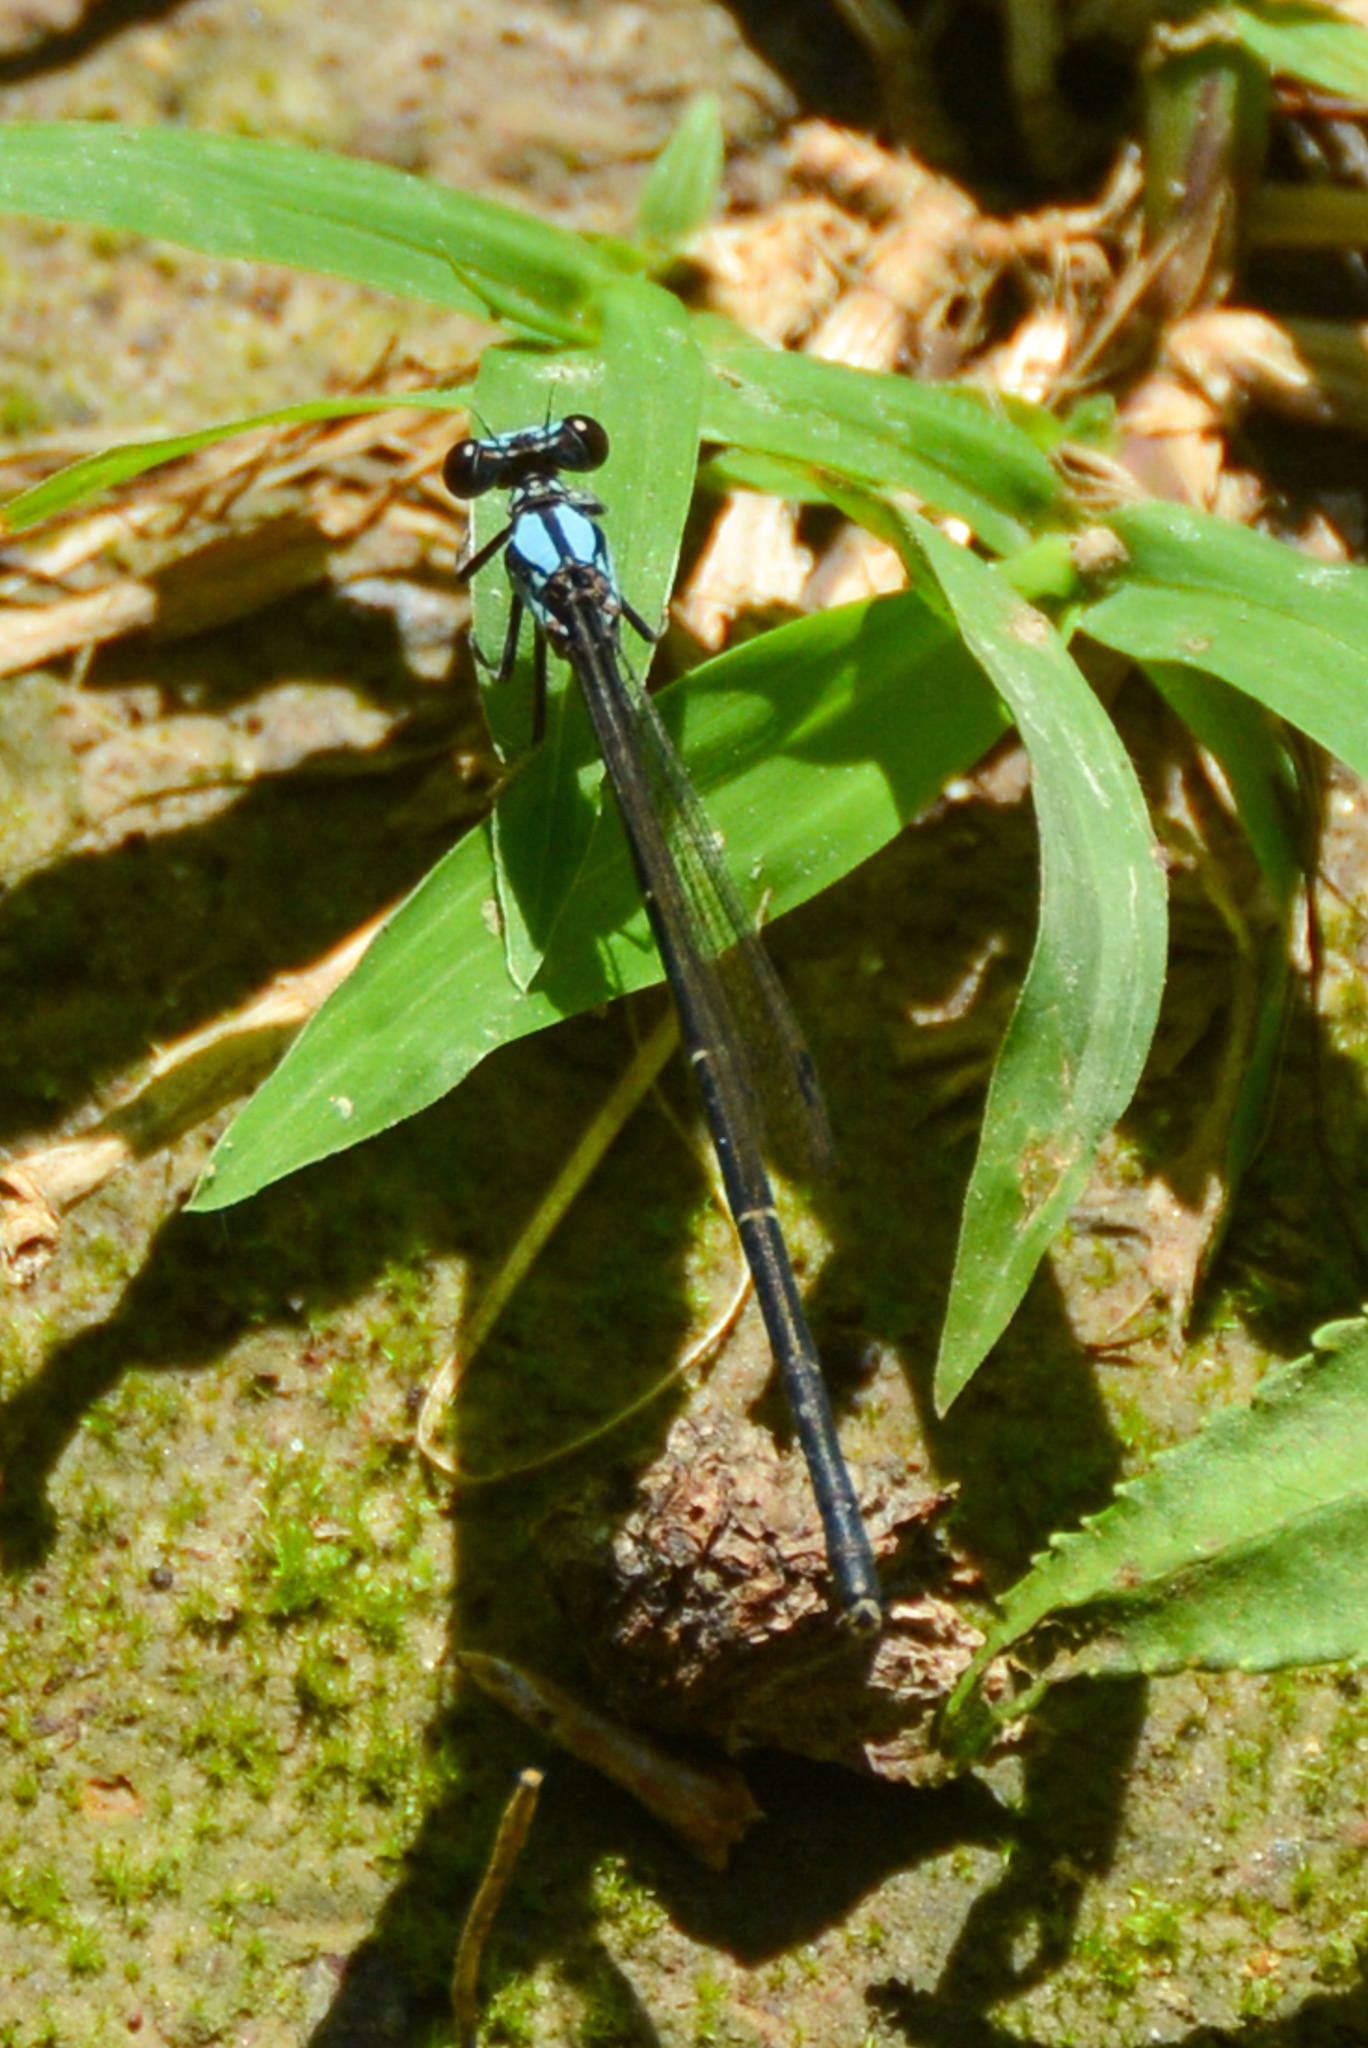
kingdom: Animalia
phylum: Arthropoda
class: Insecta
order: Odonata
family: Coenagrionidae
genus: Argia
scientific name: Argia tibialis
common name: Blue-tipped dancer
